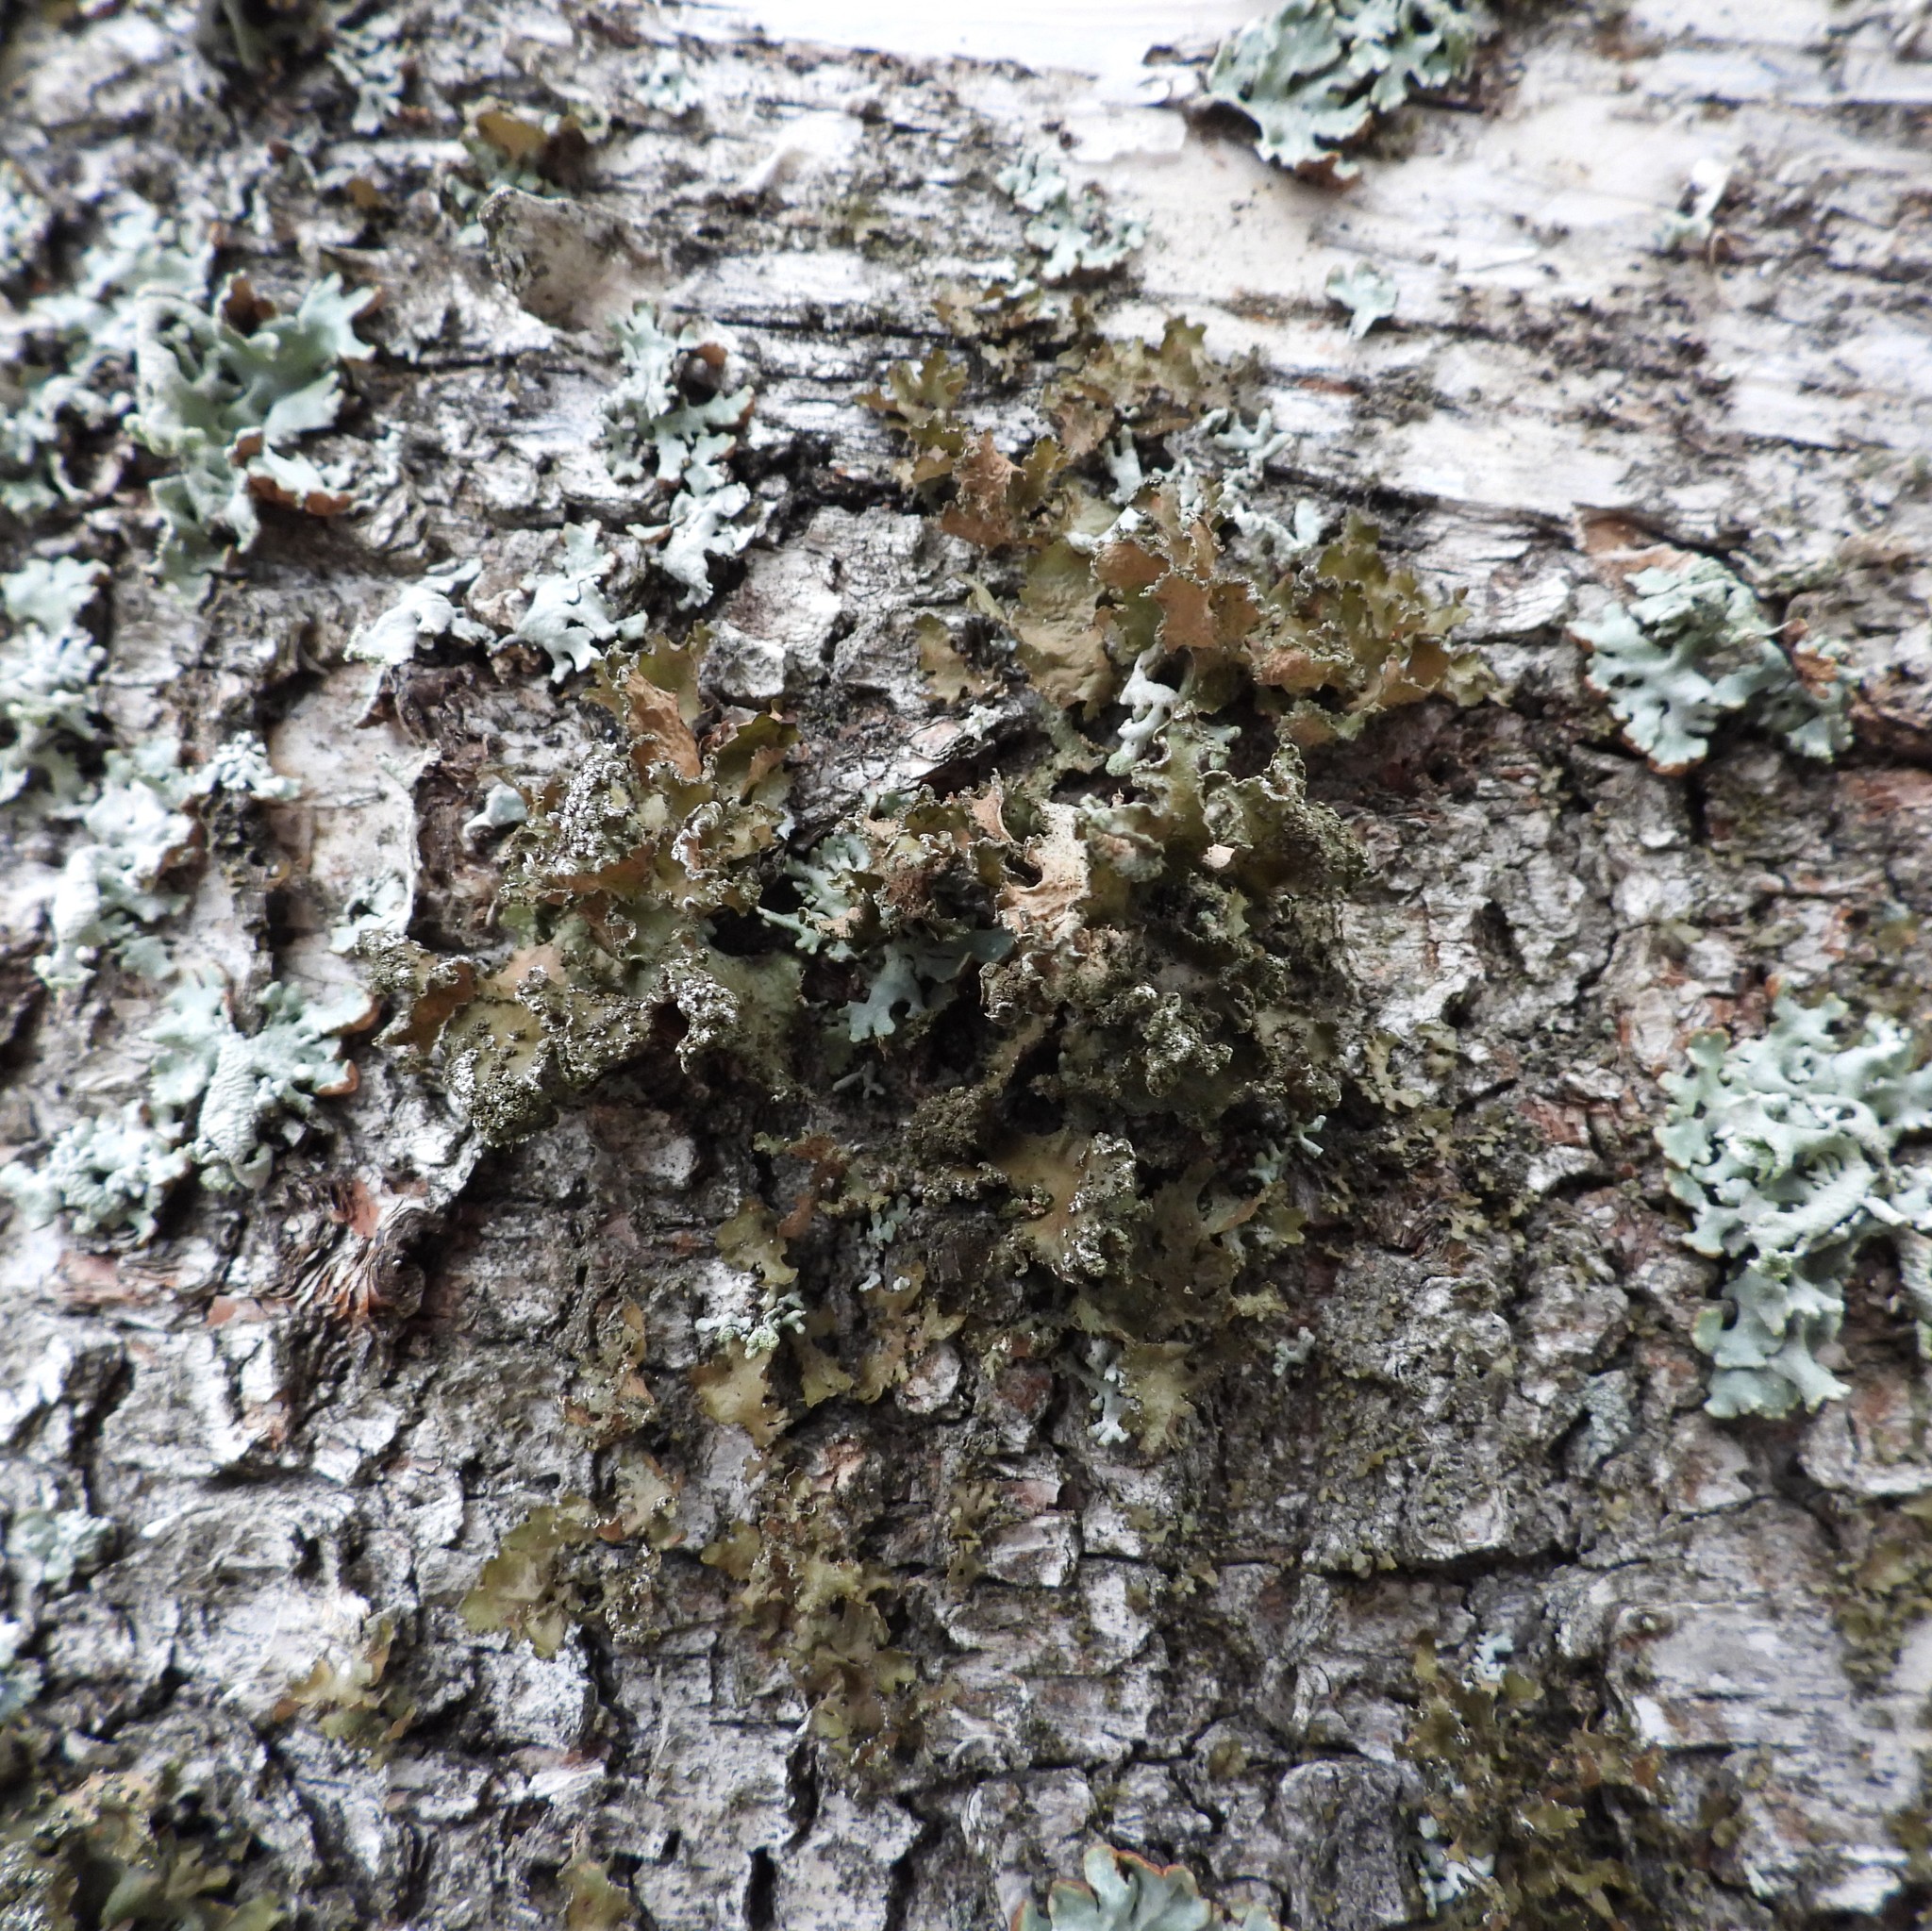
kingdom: Fungi
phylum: Ascomycota
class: Lecanoromycetes
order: Lecanorales
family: Parmeliaceae
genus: Nephromopsis
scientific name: Nephromopsis chlorophylla
